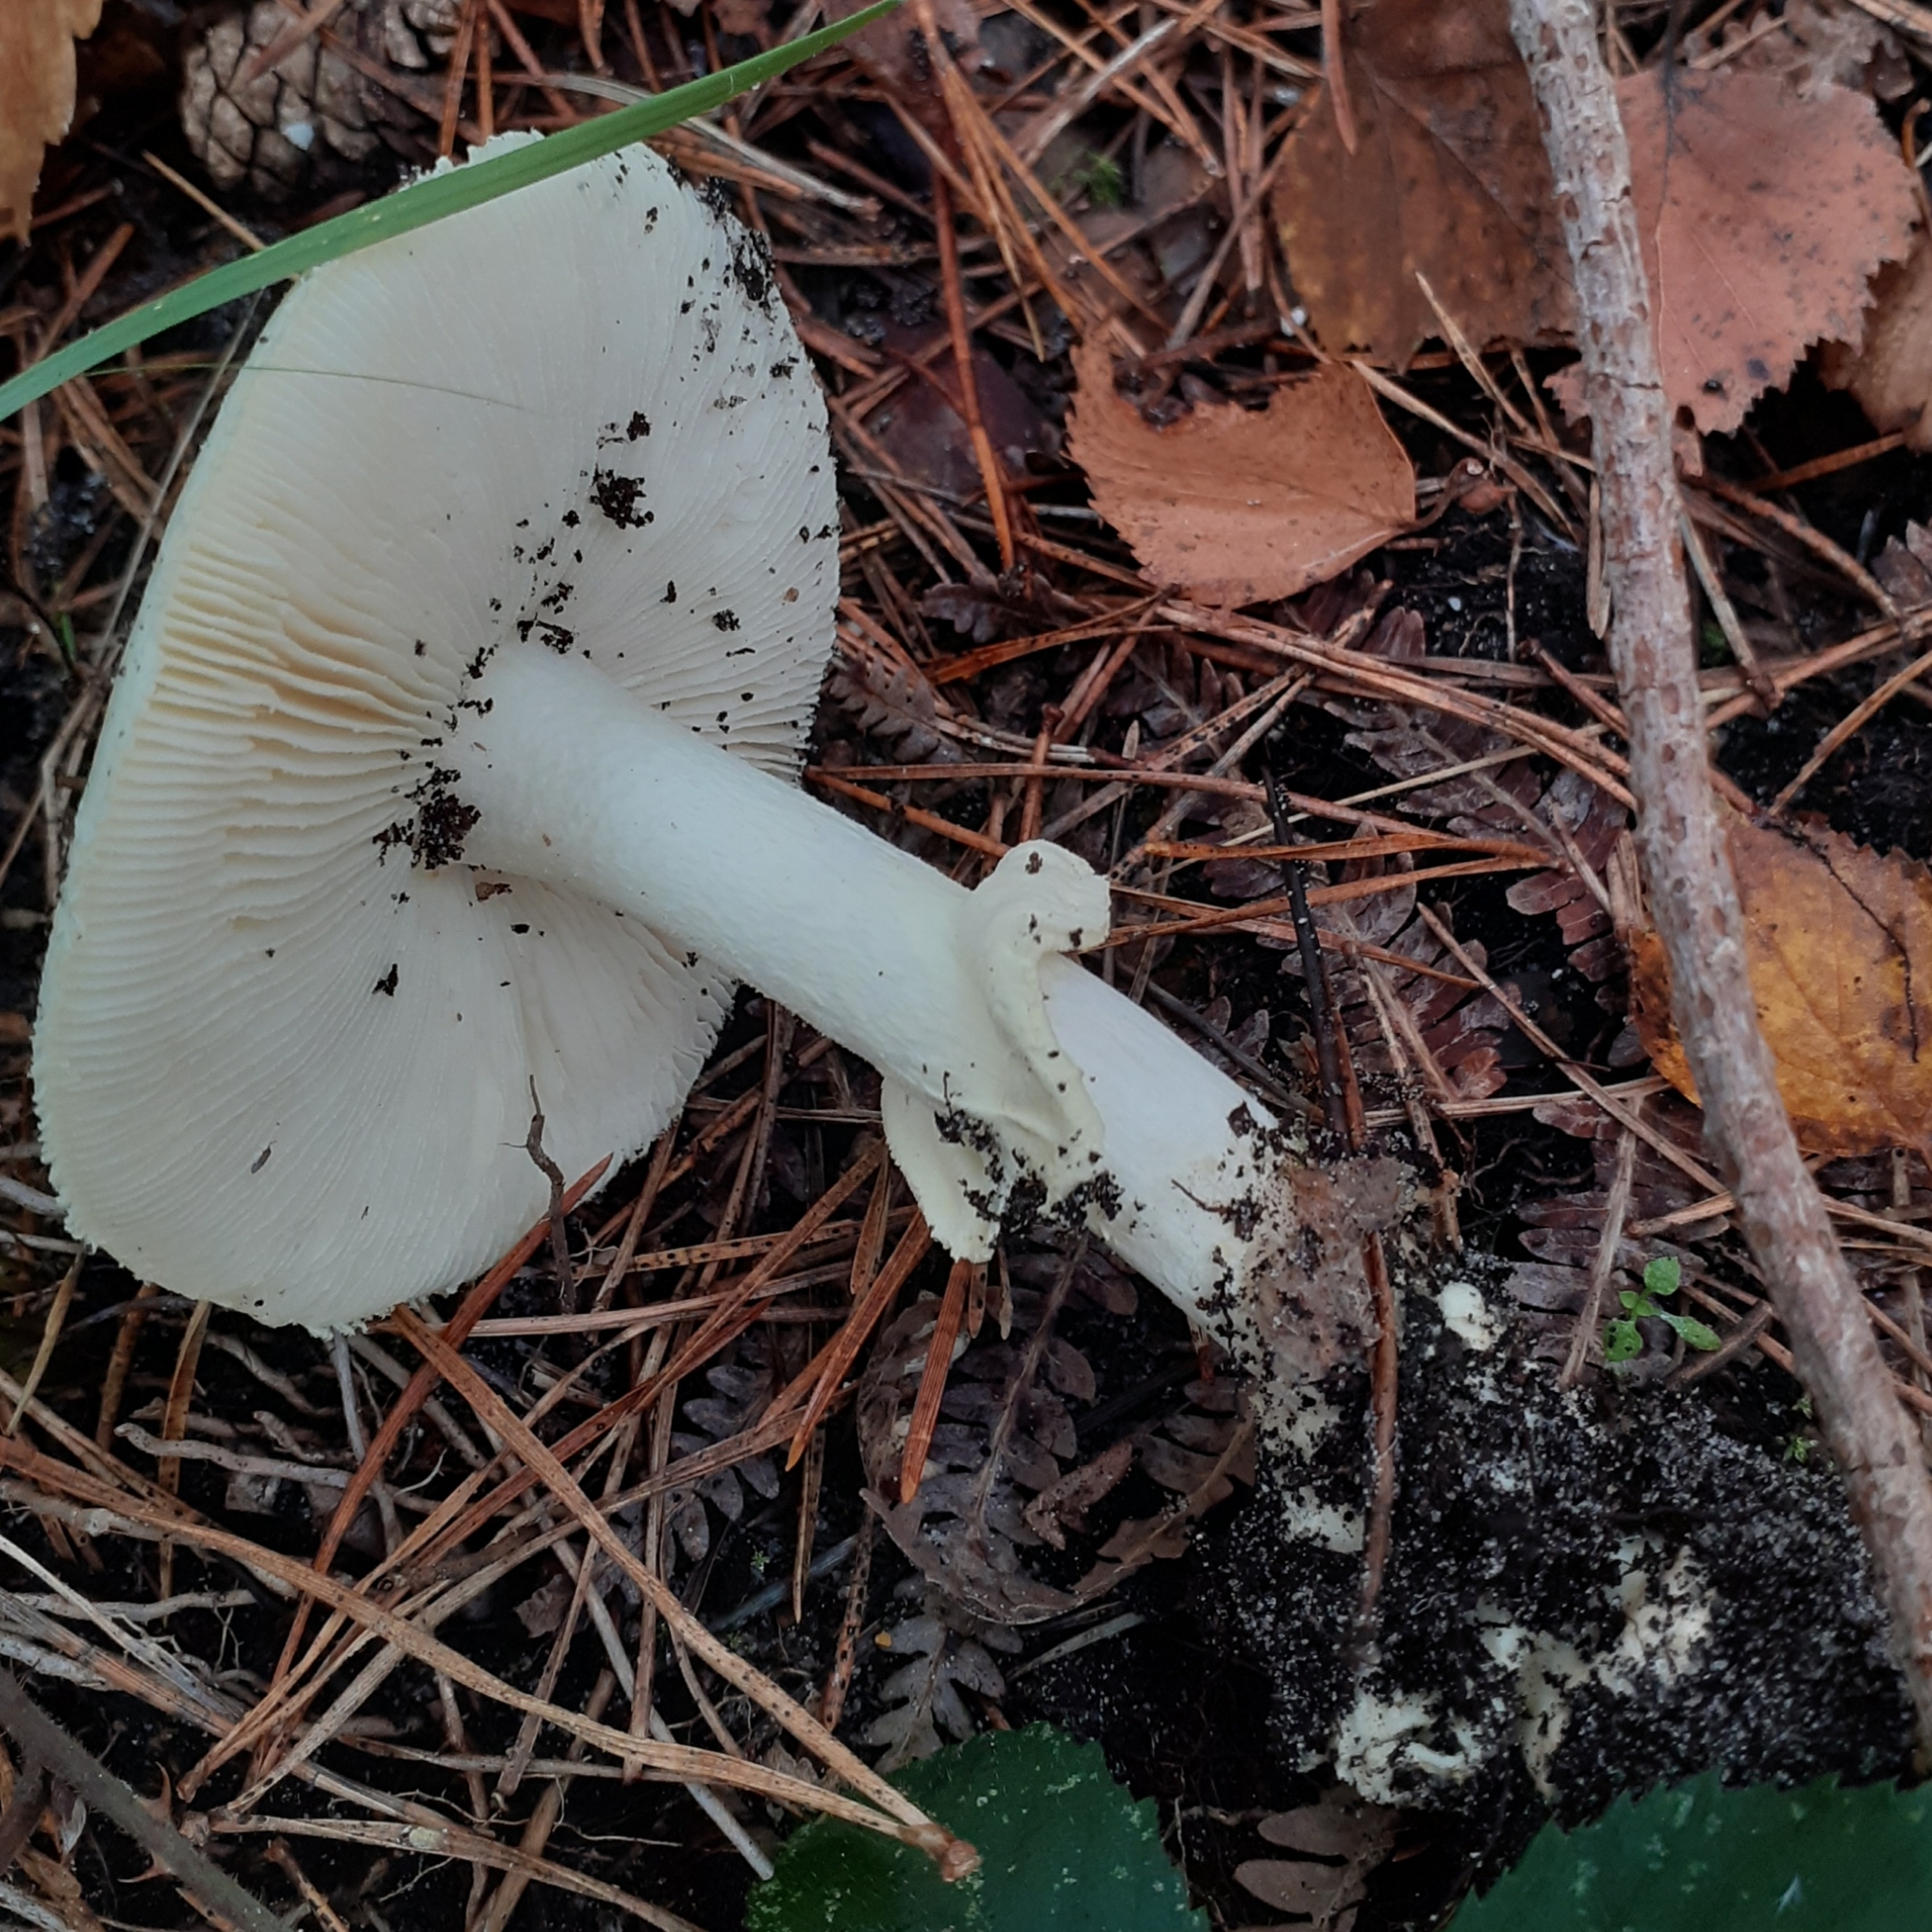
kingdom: Fungi
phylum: Basidiomycota
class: Agaricomycetes
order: Agaricales
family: Amanitaceae
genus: Amanita
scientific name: Amanita citrina
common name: False death-cap
